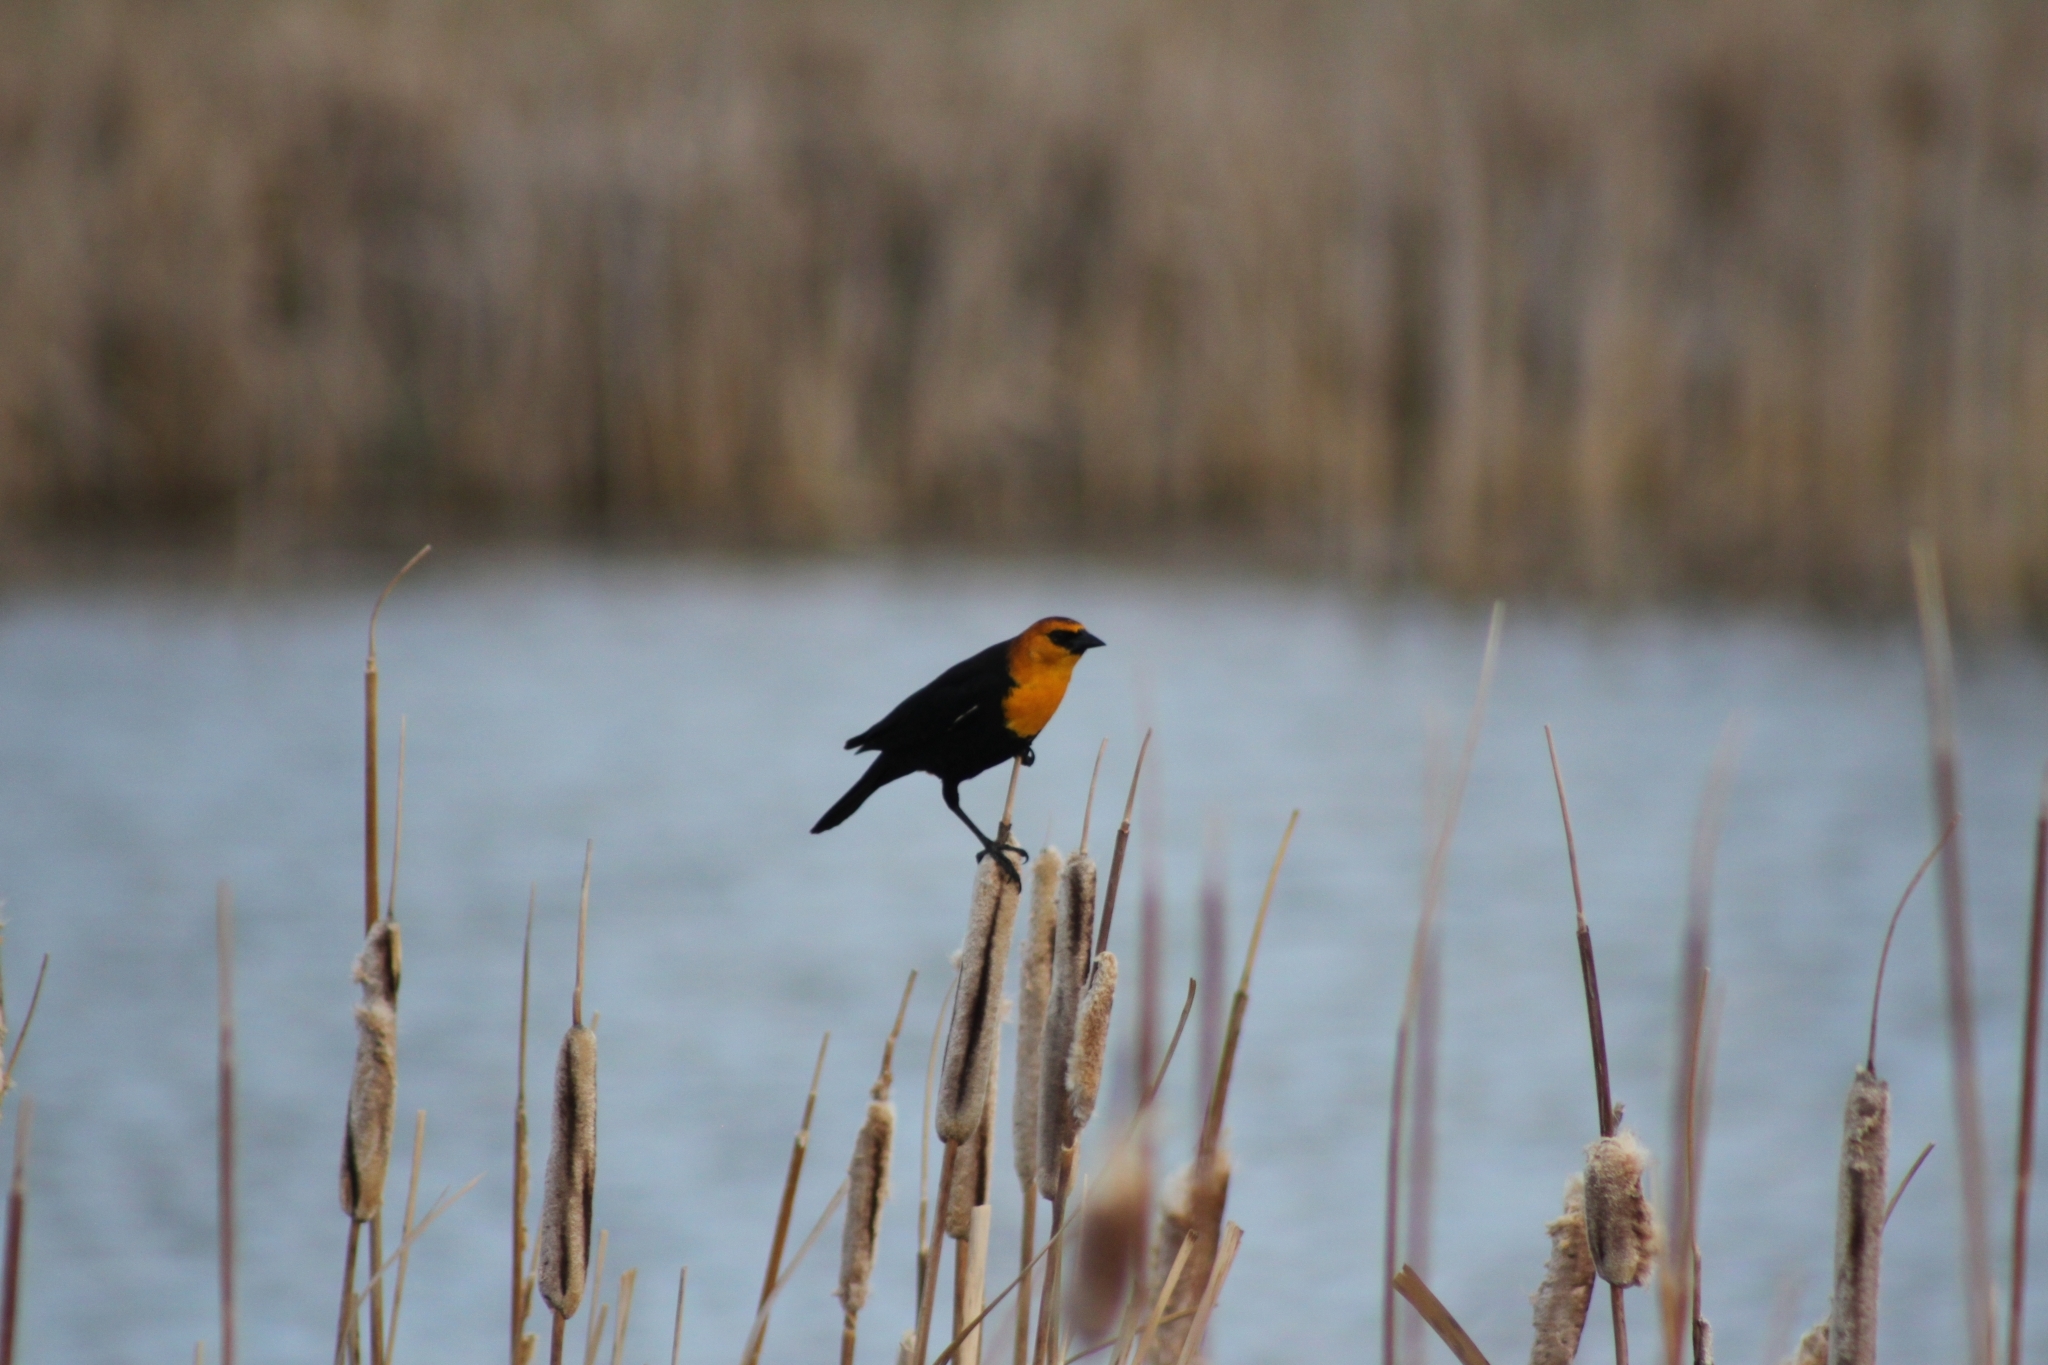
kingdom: Animalia
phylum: Chordata
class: Aves
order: Passeriformes
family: Icteridae
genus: Xanthocephalus
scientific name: Xanthocephalus xanthocephalus
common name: Yellow-headed blackbird
